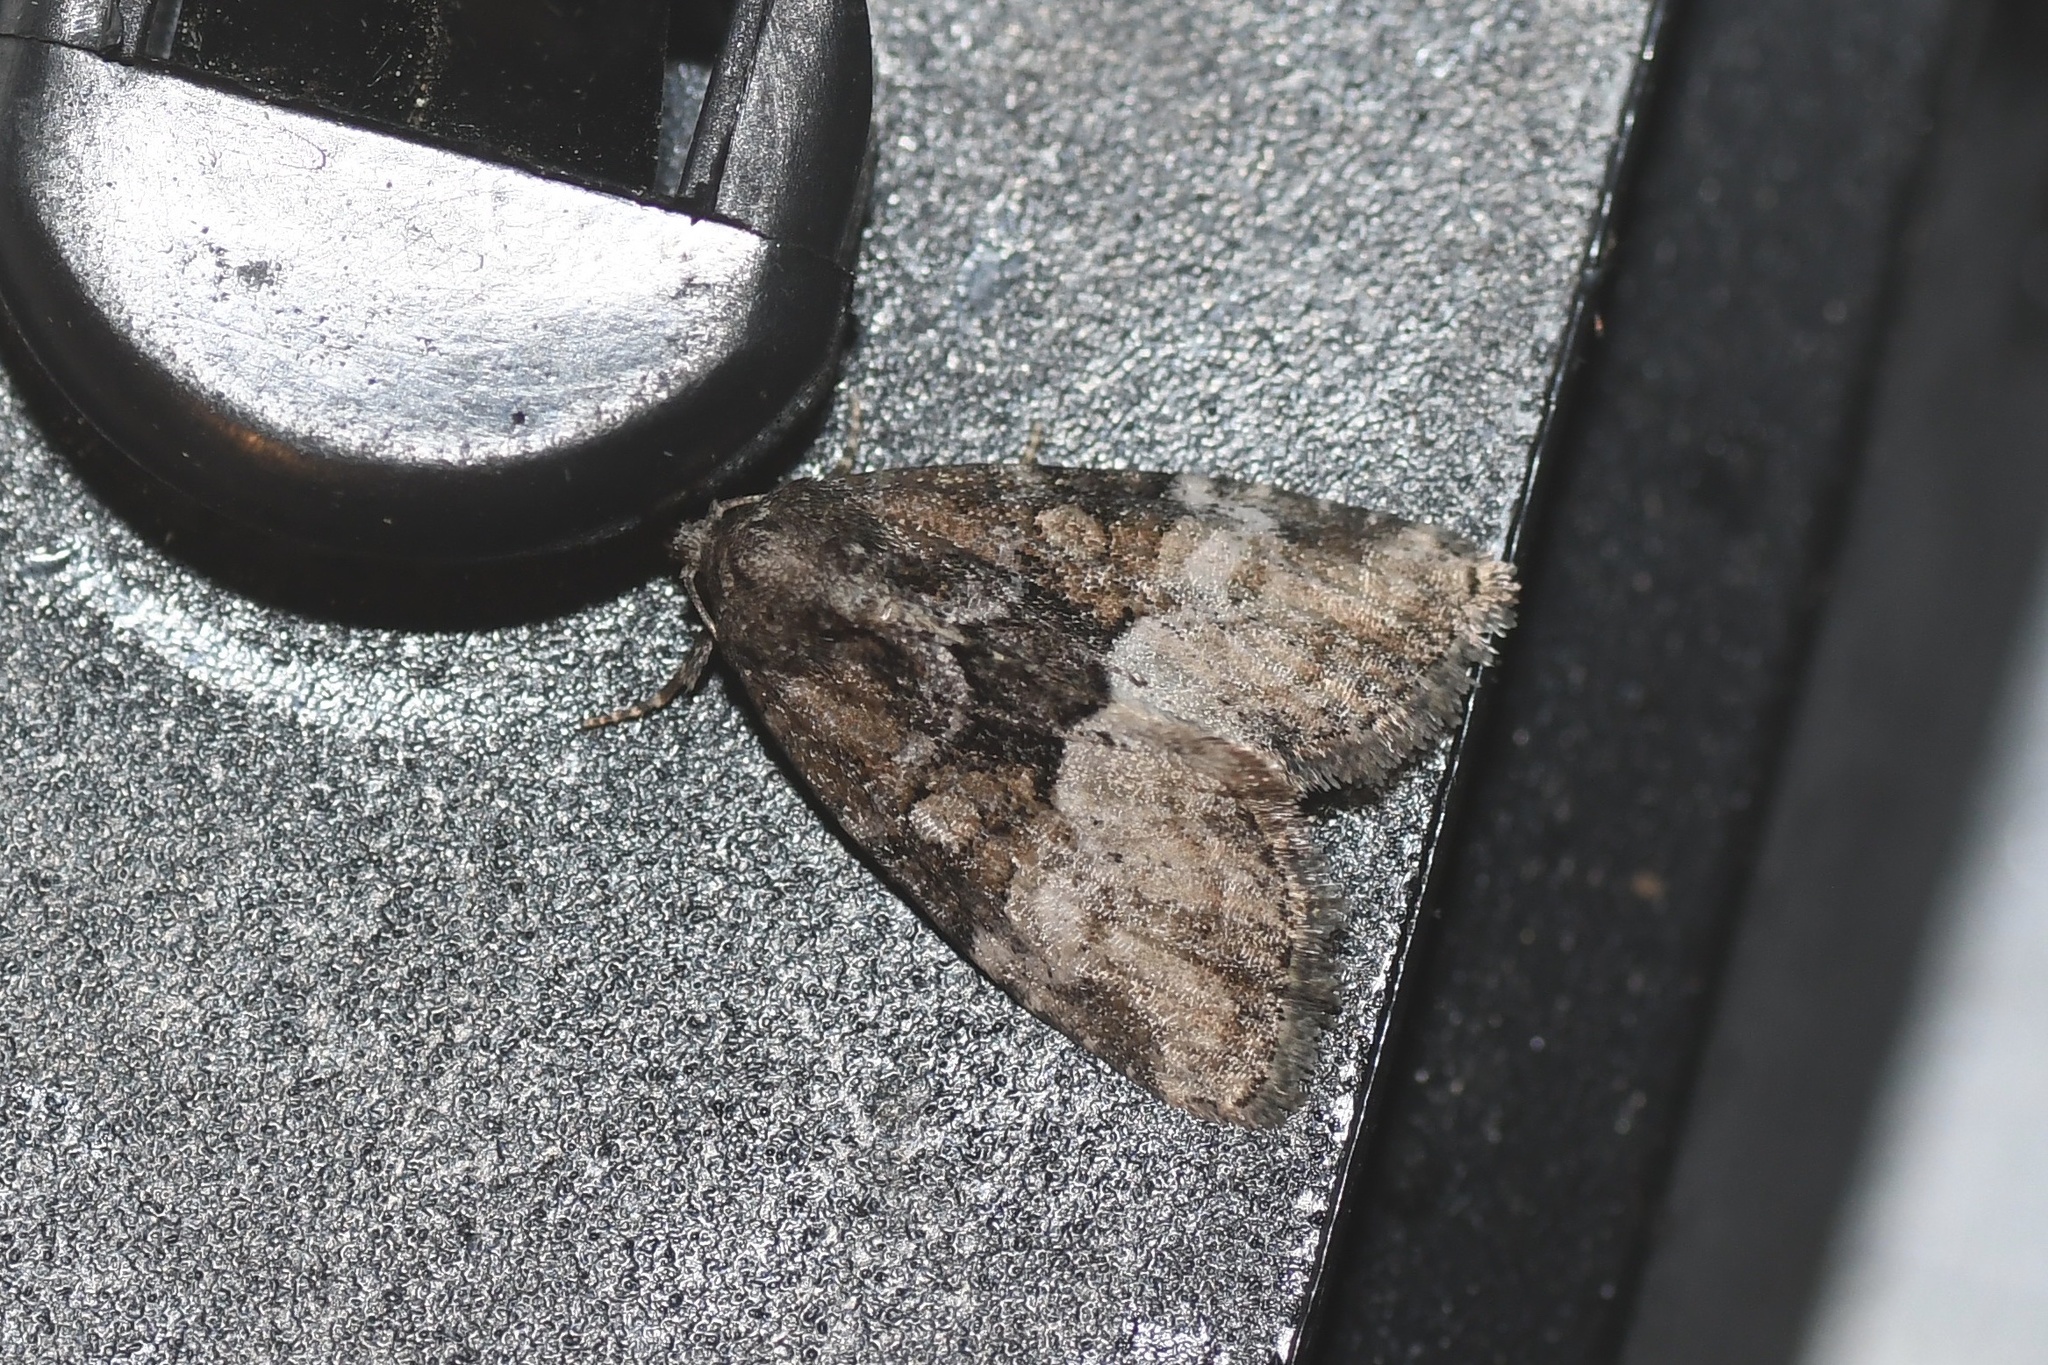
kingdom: Animalia
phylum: Arthropoda
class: Insecta
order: Lepidoptera
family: Noctuidae
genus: Neoligia
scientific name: Neoligia subjuncta
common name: Connected brocade
